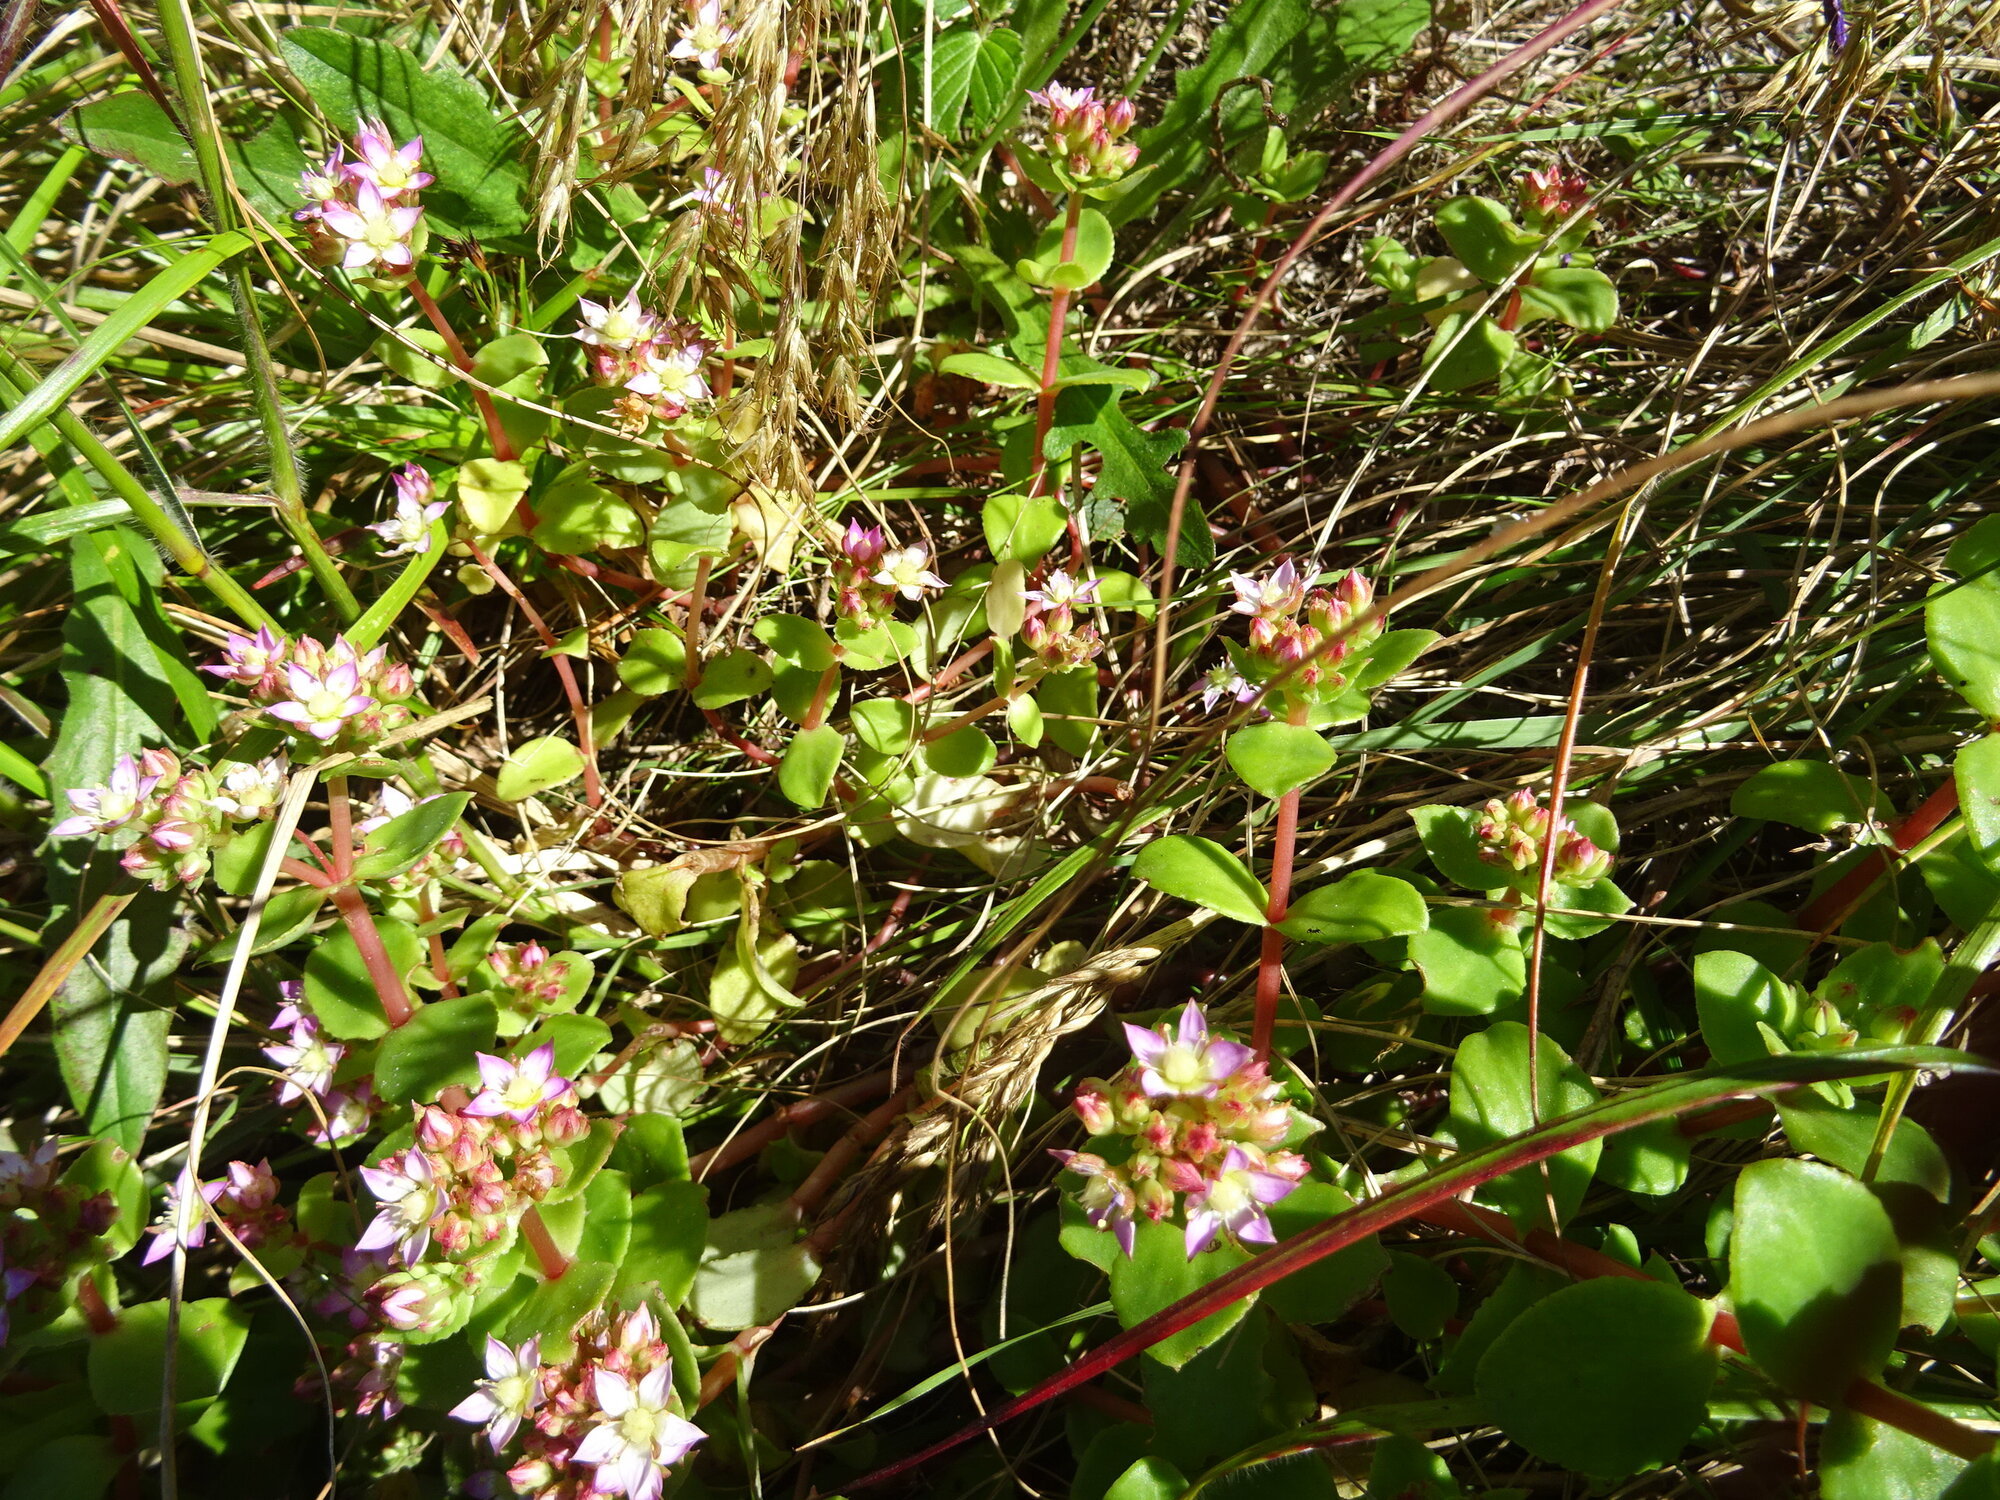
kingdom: Plantae
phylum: Tracheophyta
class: Magnoliopsida
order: Saxifragales
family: Crassulaceae
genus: Crassula
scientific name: Crassula pellucida
